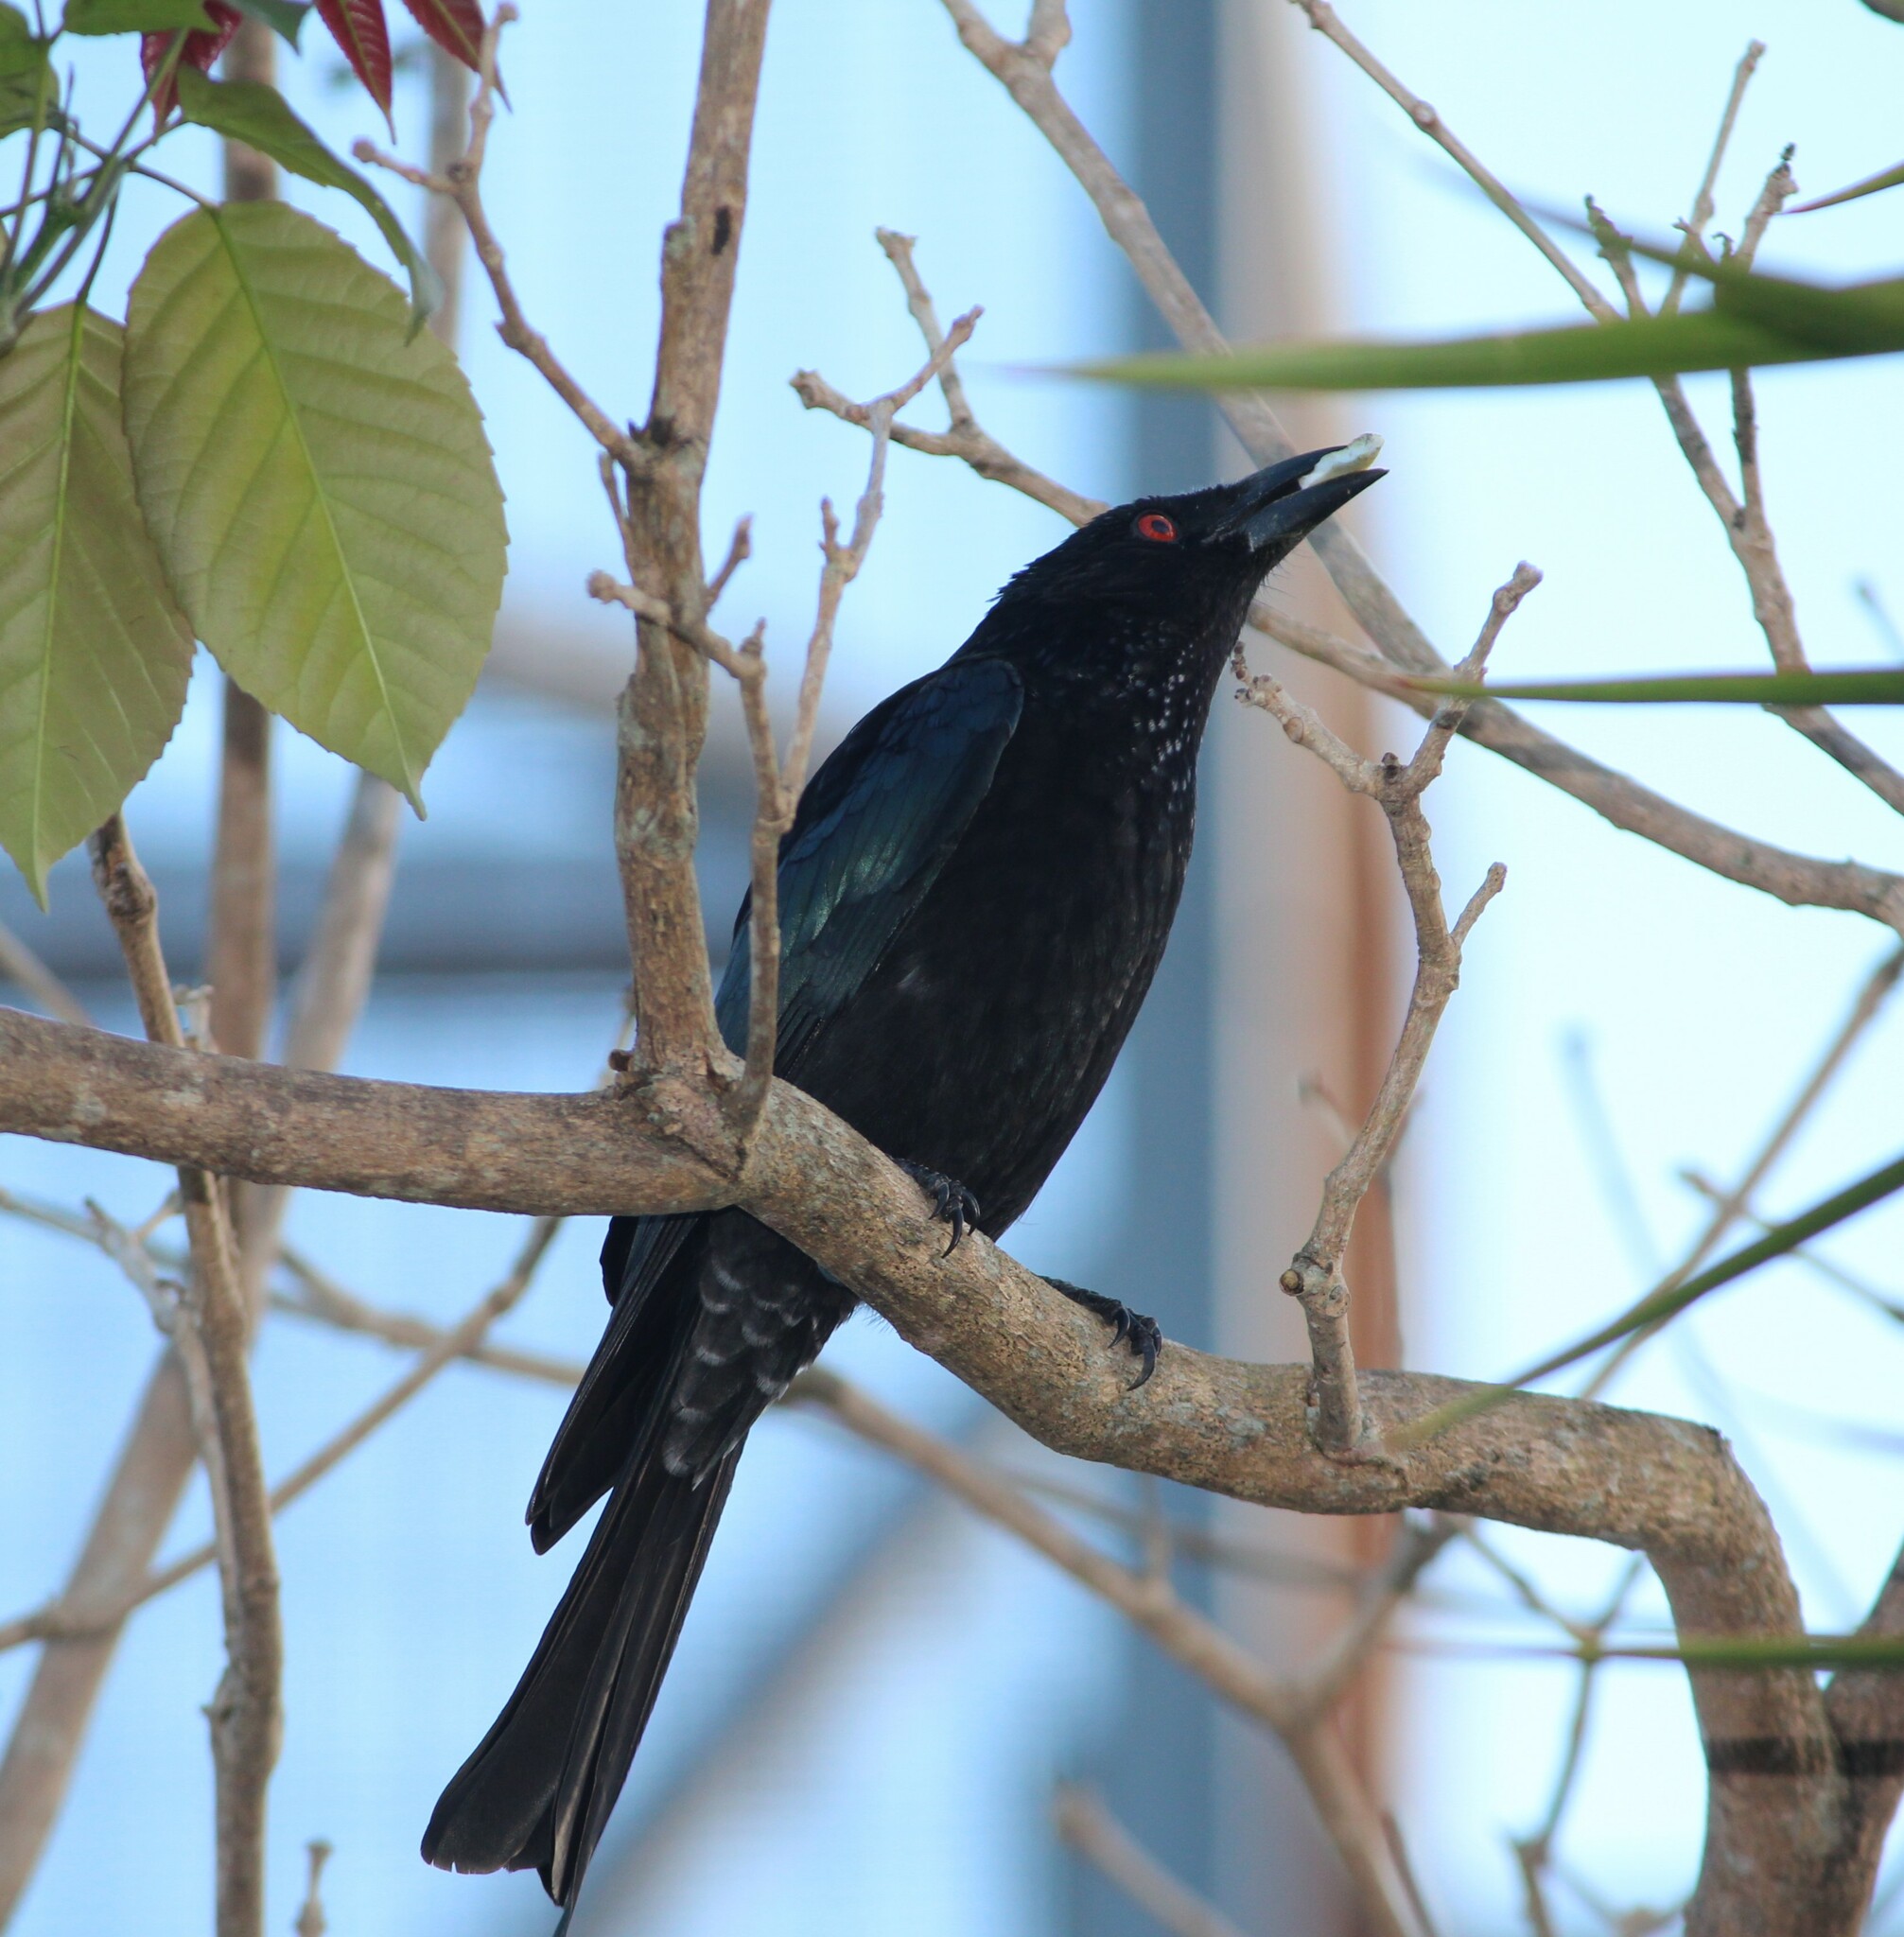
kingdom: Animalia
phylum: Chordata
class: Aves
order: Passeriformes
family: Dicruridae
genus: Dicrurus
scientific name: Dicrurus bracteatus
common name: Spangled drongo
